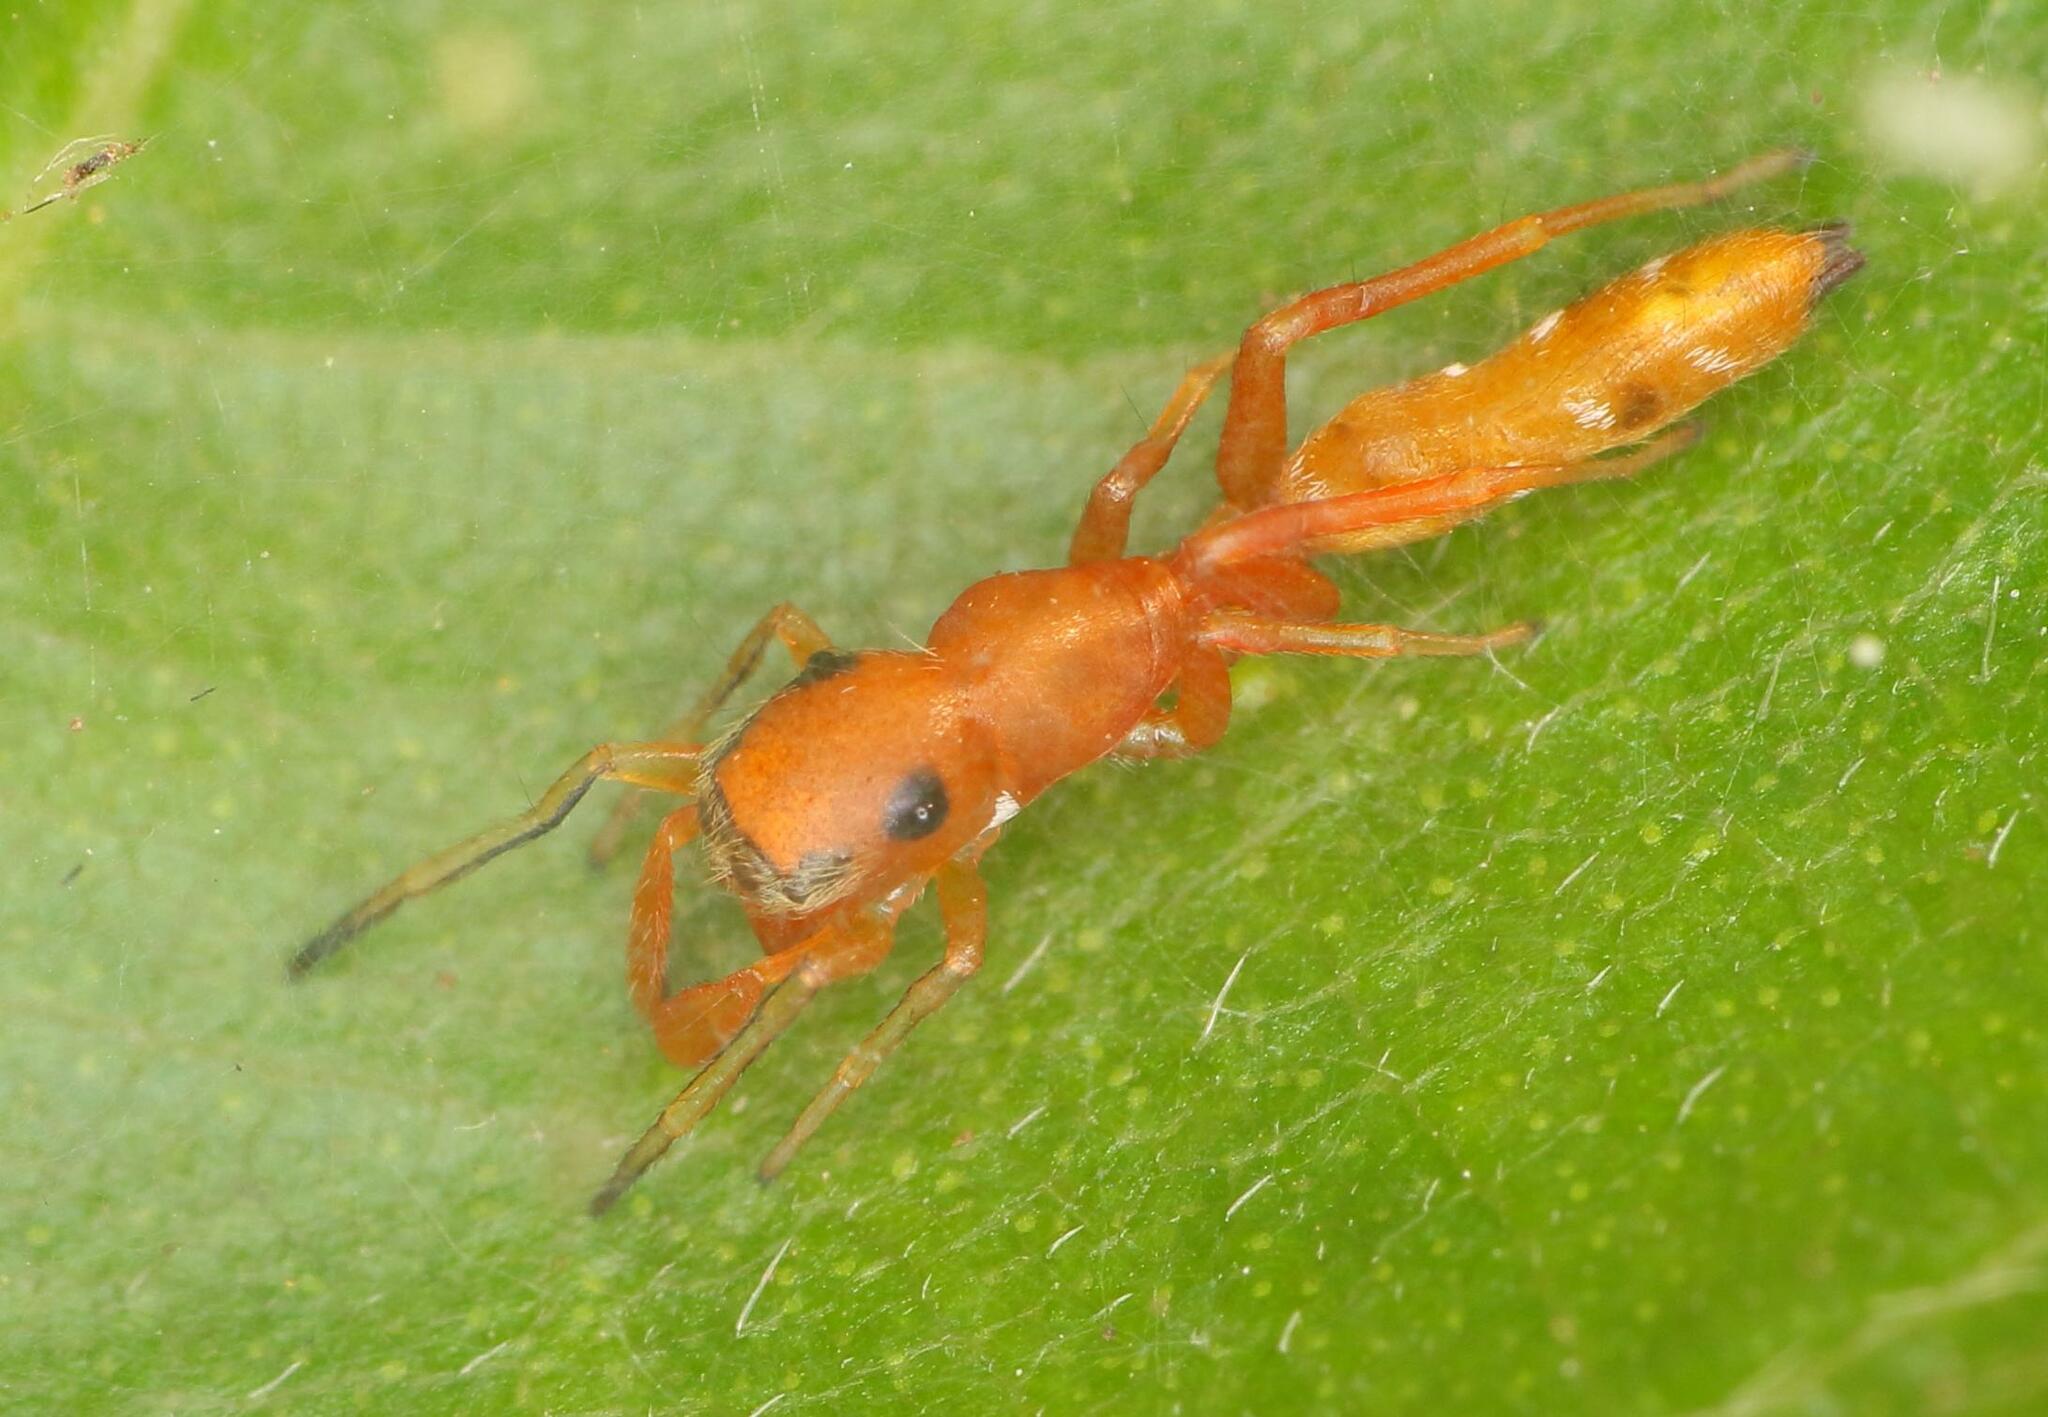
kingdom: Animalia
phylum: Arthropoda
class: Arachnida
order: Araneae
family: Salticidae
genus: Myrmarachne
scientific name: Myrmarachne ichneumon
